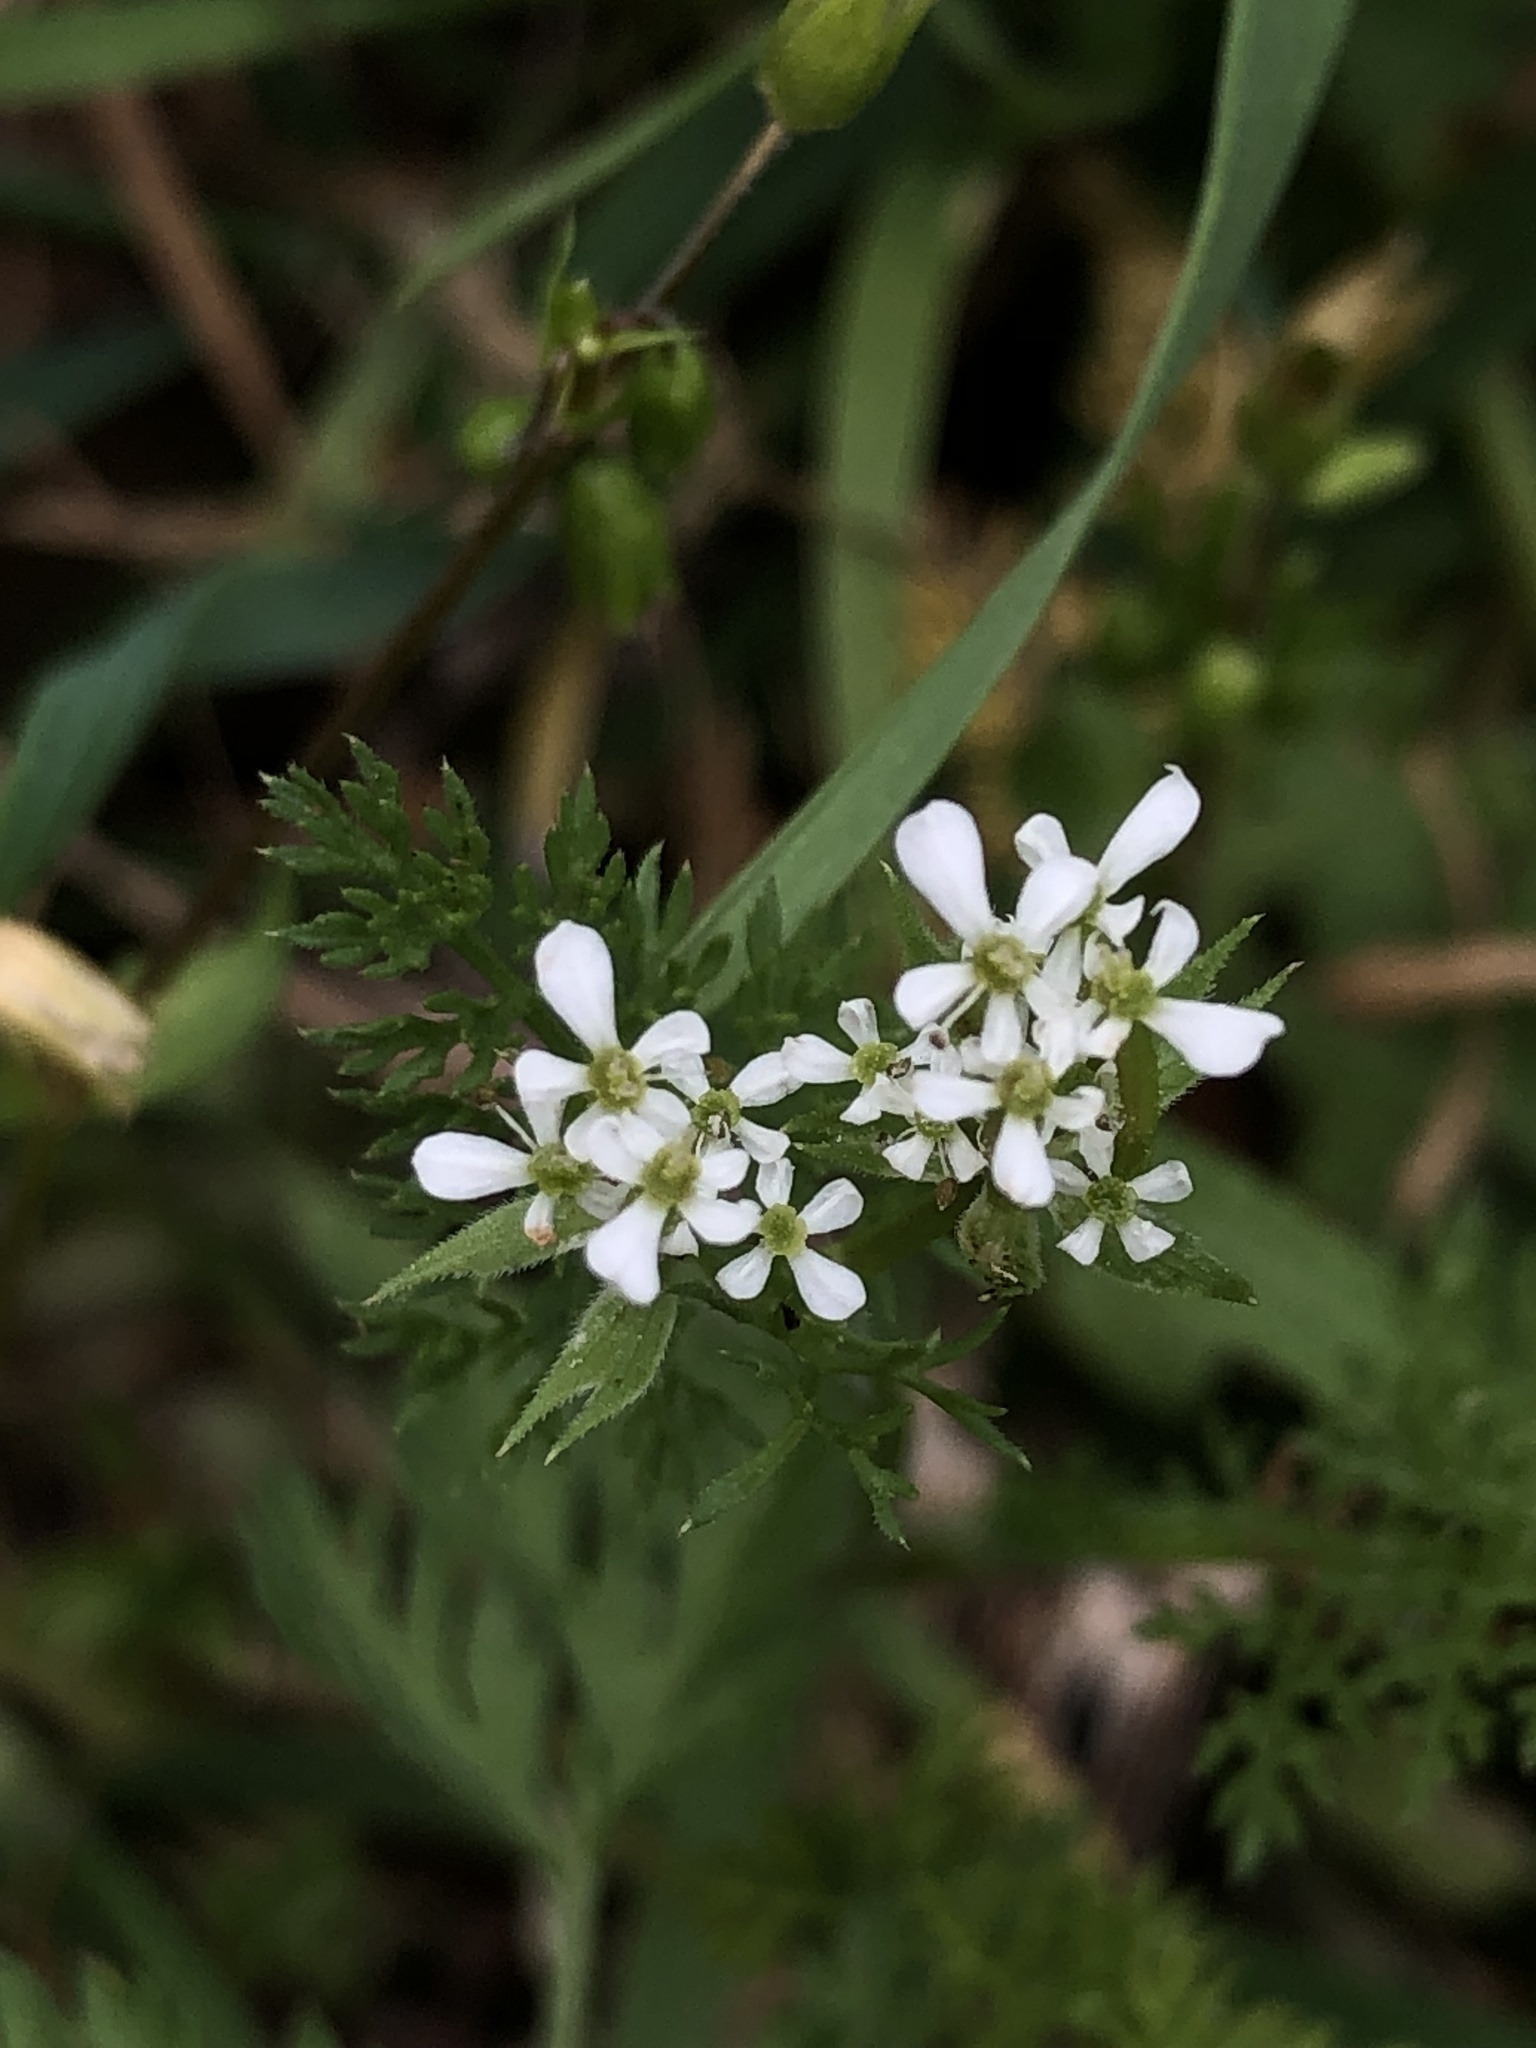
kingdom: Plantae
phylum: Tracheophyta
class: Magnoliopsida
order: Apiales
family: Apiaceae
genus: Scandix
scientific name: Scandix pecten-veneris
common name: Shepherd's-needle
